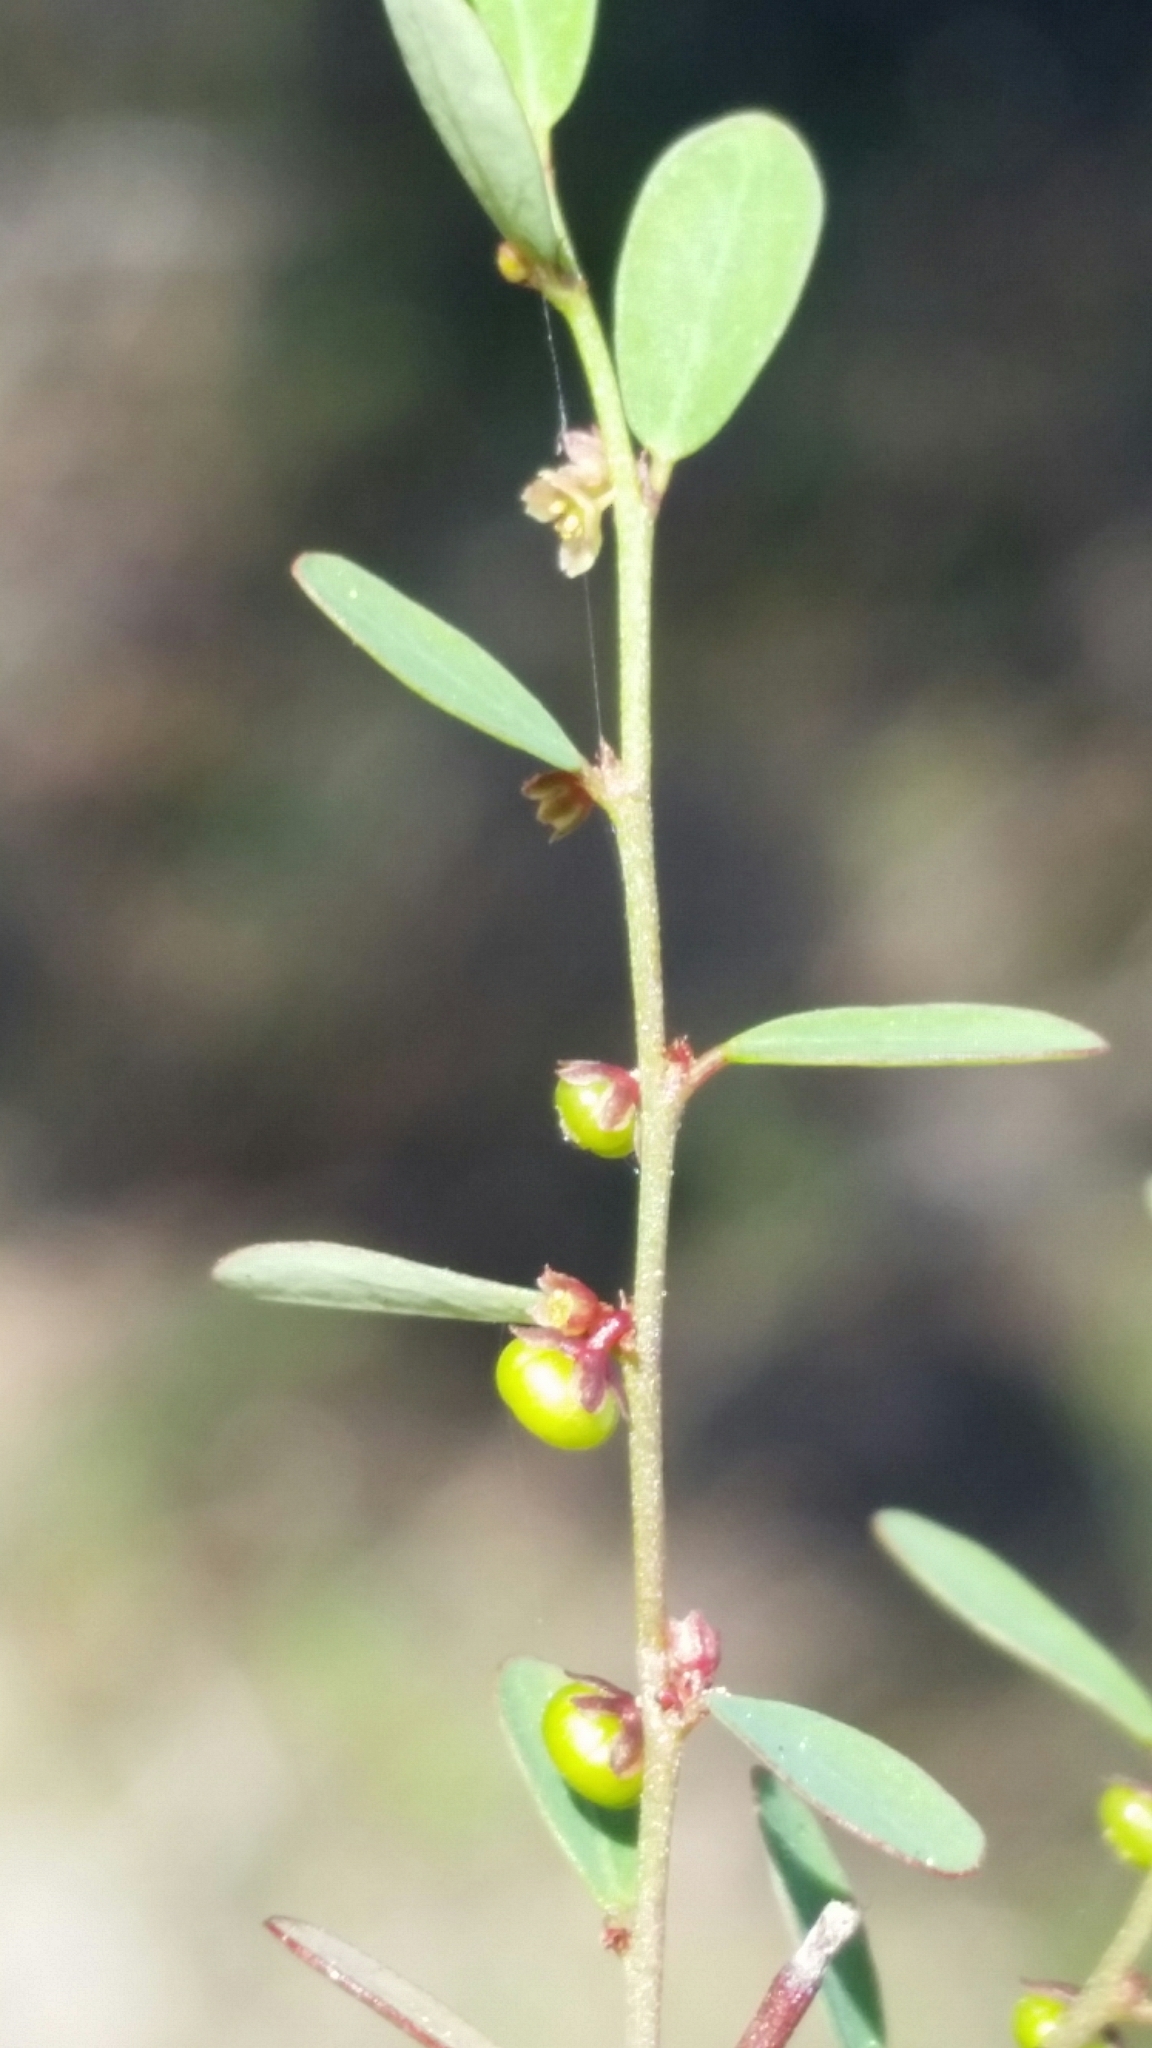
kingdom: Plantae
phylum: Tracheophyta
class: Magnoliopsida
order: Malpighiales
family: Phyllanthaceae
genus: Phyllanthus
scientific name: Phyllanthus caroliniensis
